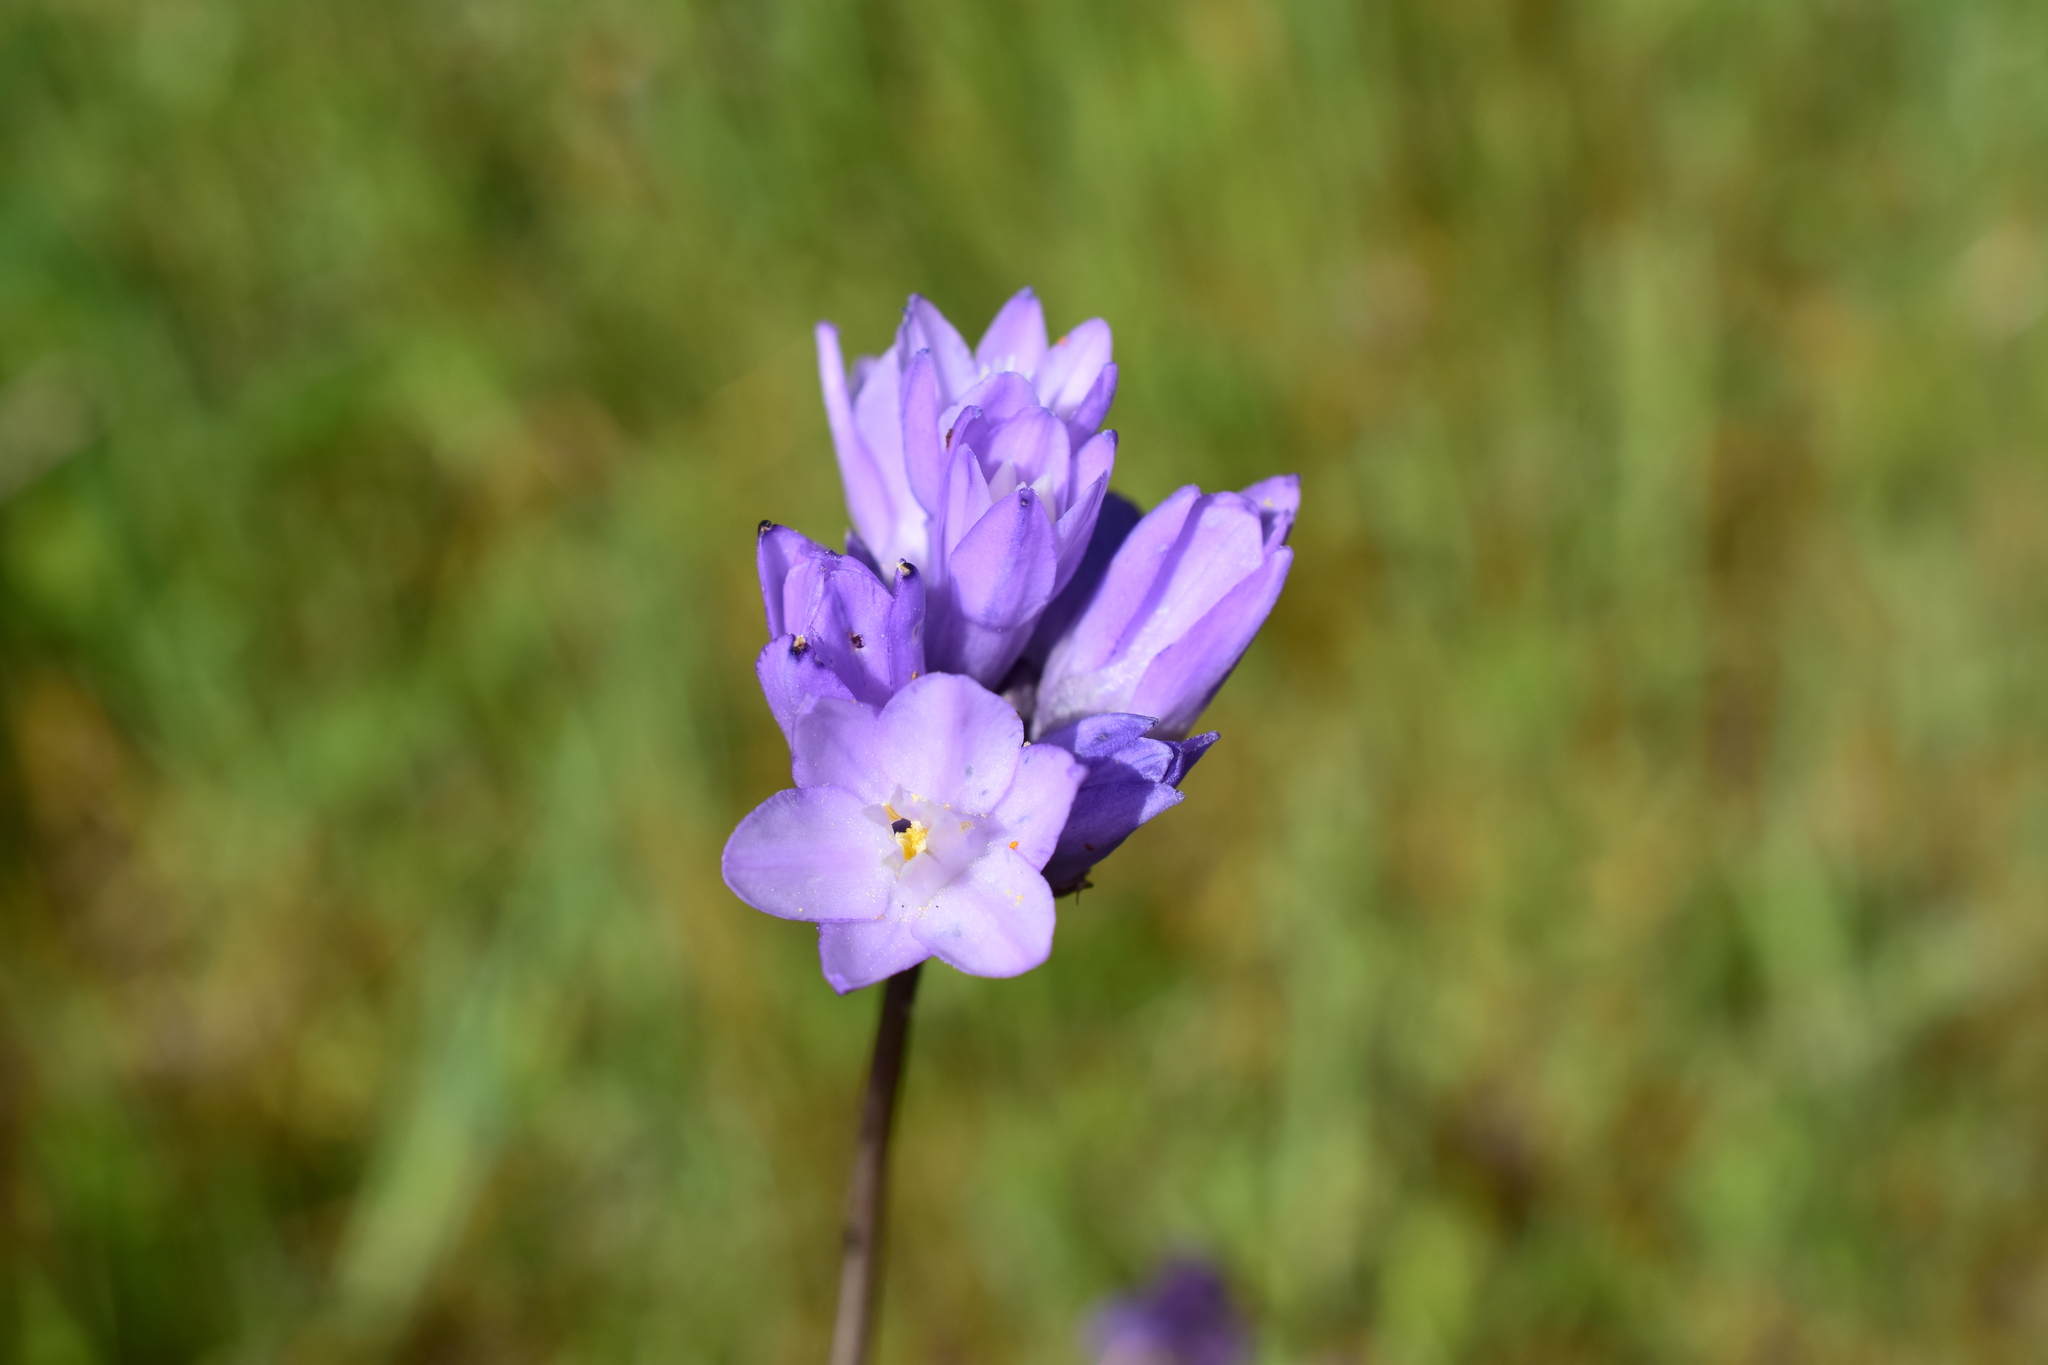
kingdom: Plantae
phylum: Tracheophyta
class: Liliopsida
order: Asparagales
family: Asparagaceae
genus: Dipterostemon
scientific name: Dipterostemon capitatus
